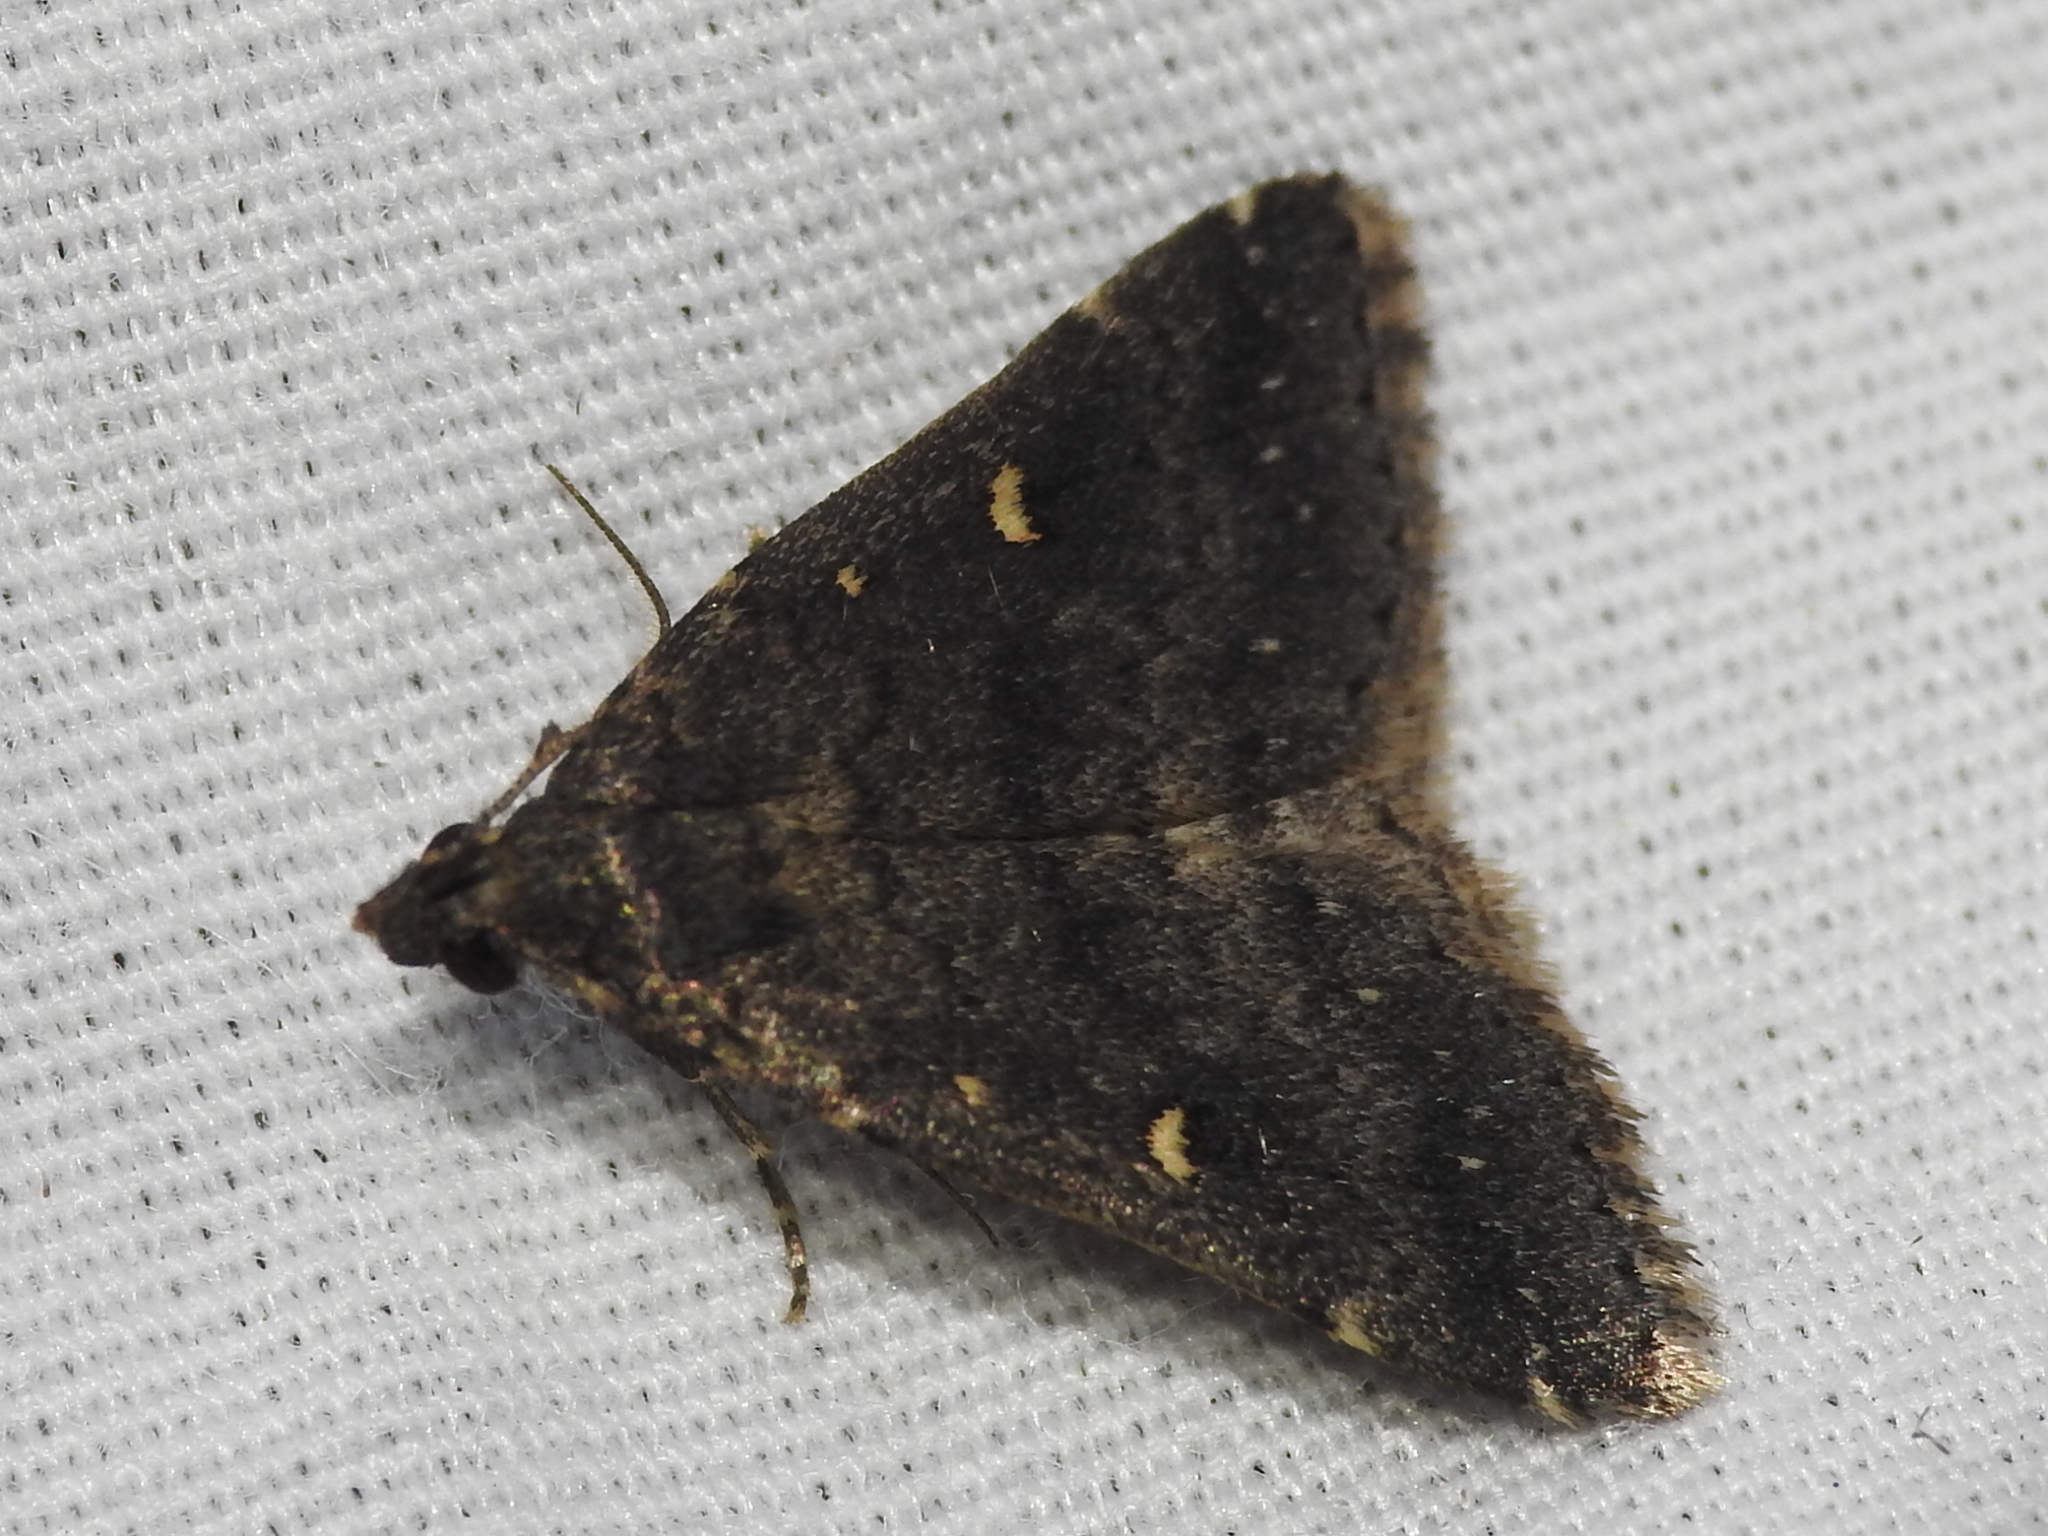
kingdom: Animalia
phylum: Arthropoda
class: Insecta
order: Lepidoptera
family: Erebidae
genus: Tetanolita
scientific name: Tetanolita mynesalis
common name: Smoky tetanolita moth
